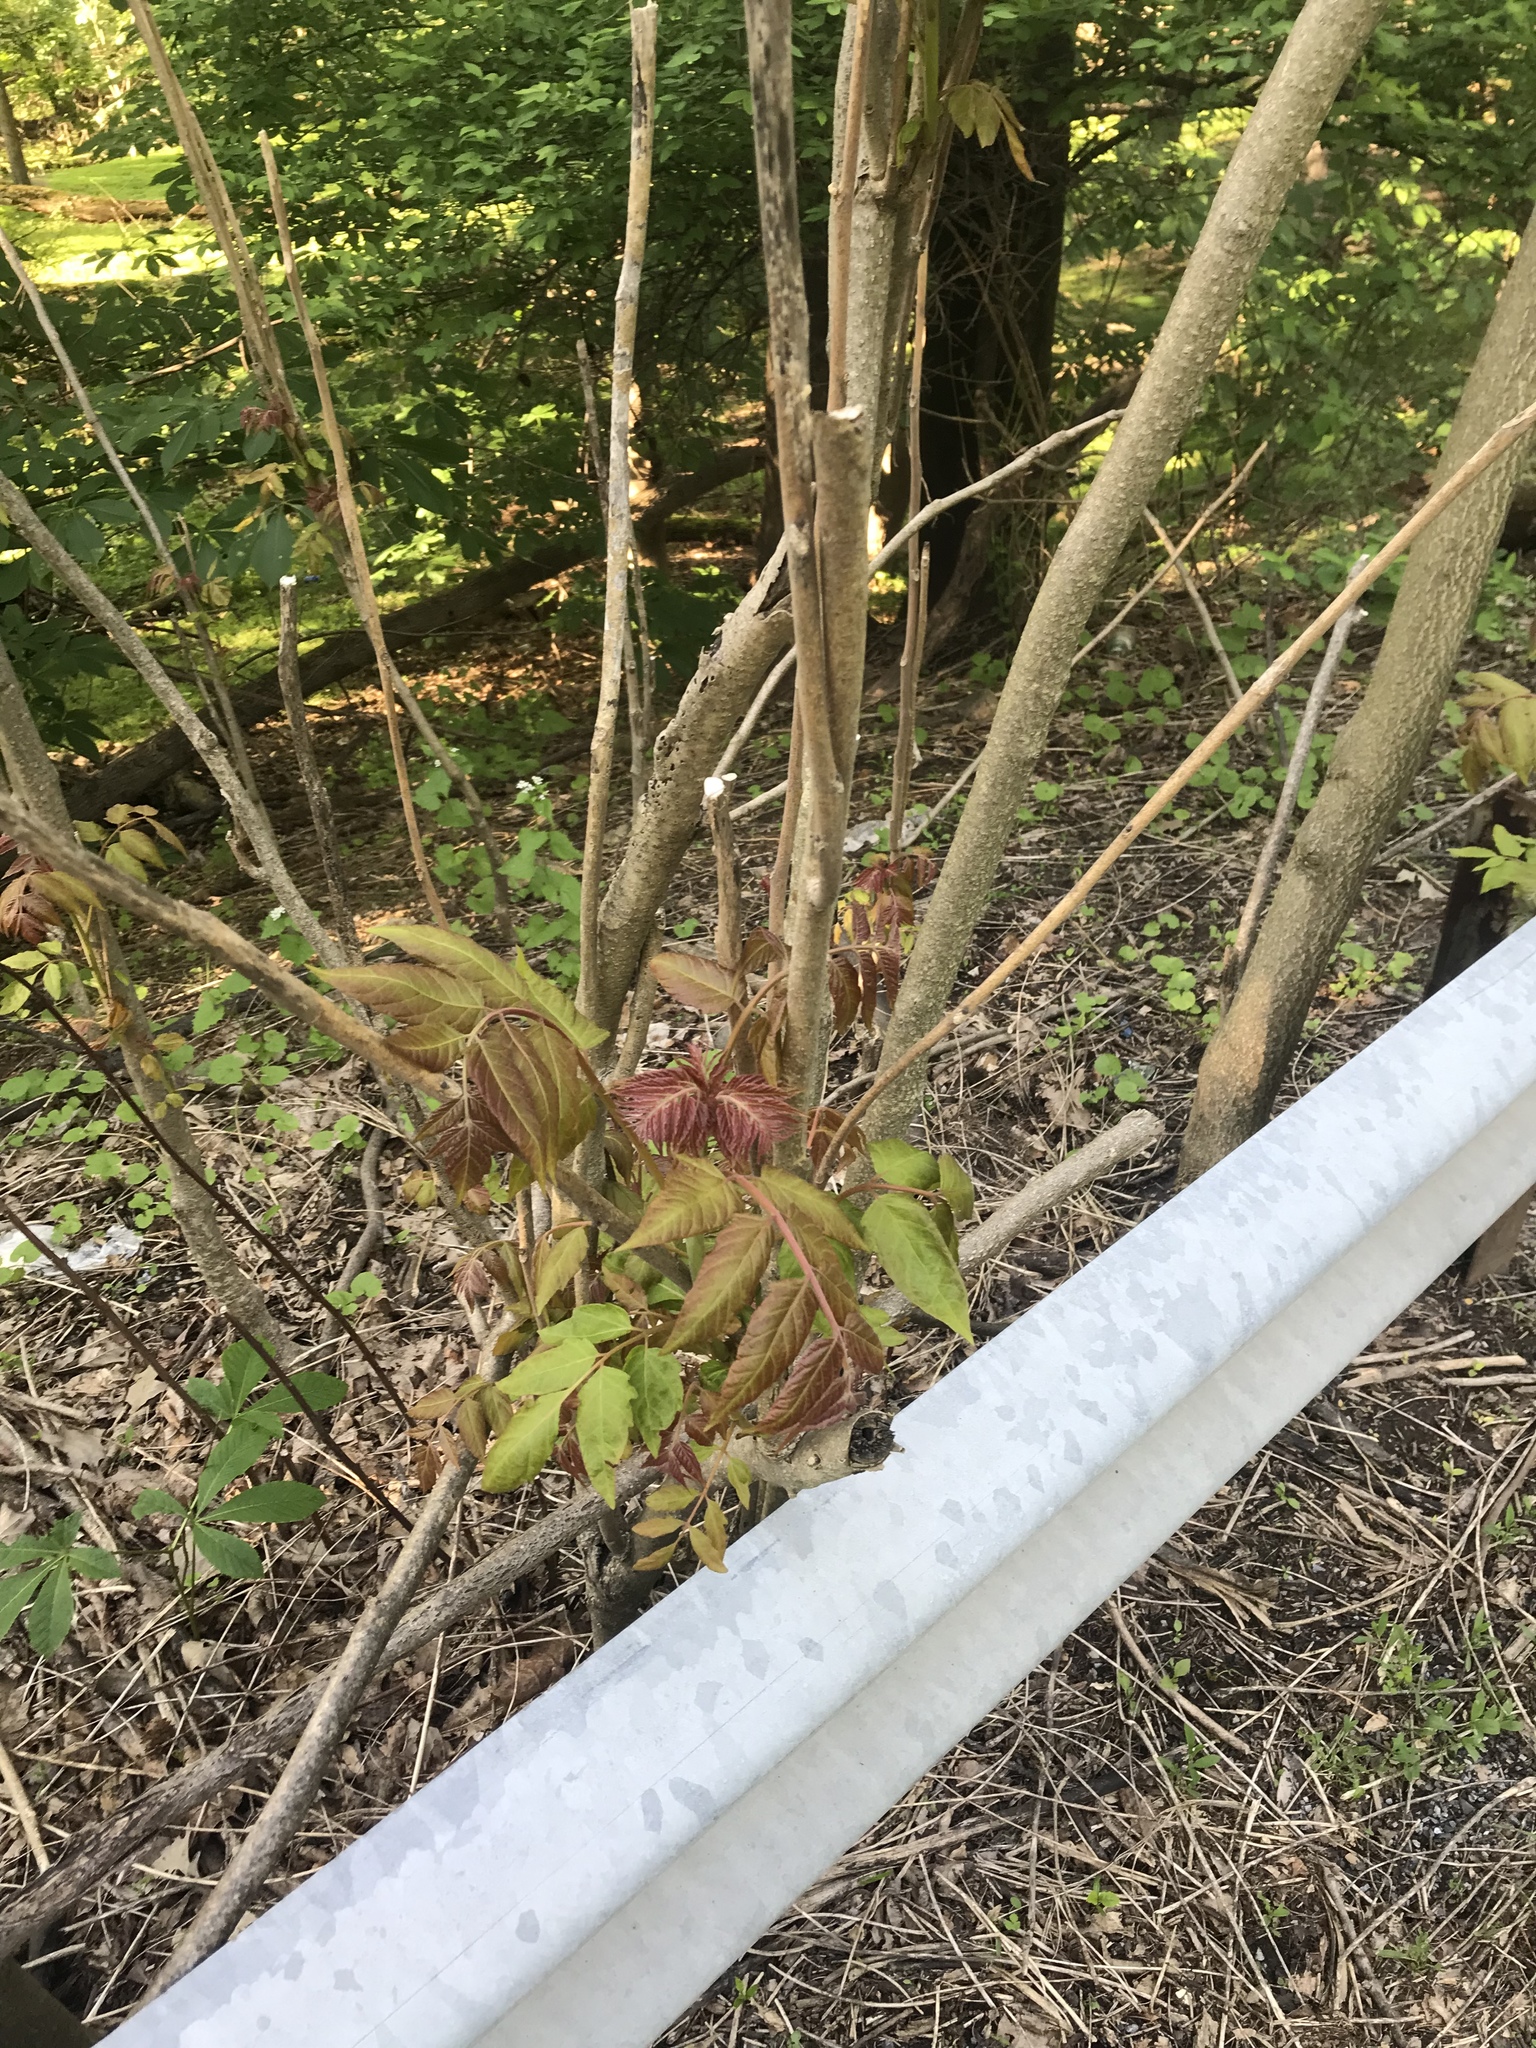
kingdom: Plantae
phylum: Tracheophyta
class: Magnoliopsida
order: Sapindales
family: Simaroubaceae
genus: Ailanthus
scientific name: Ailanthus altissima
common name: Tree-of-heaven
